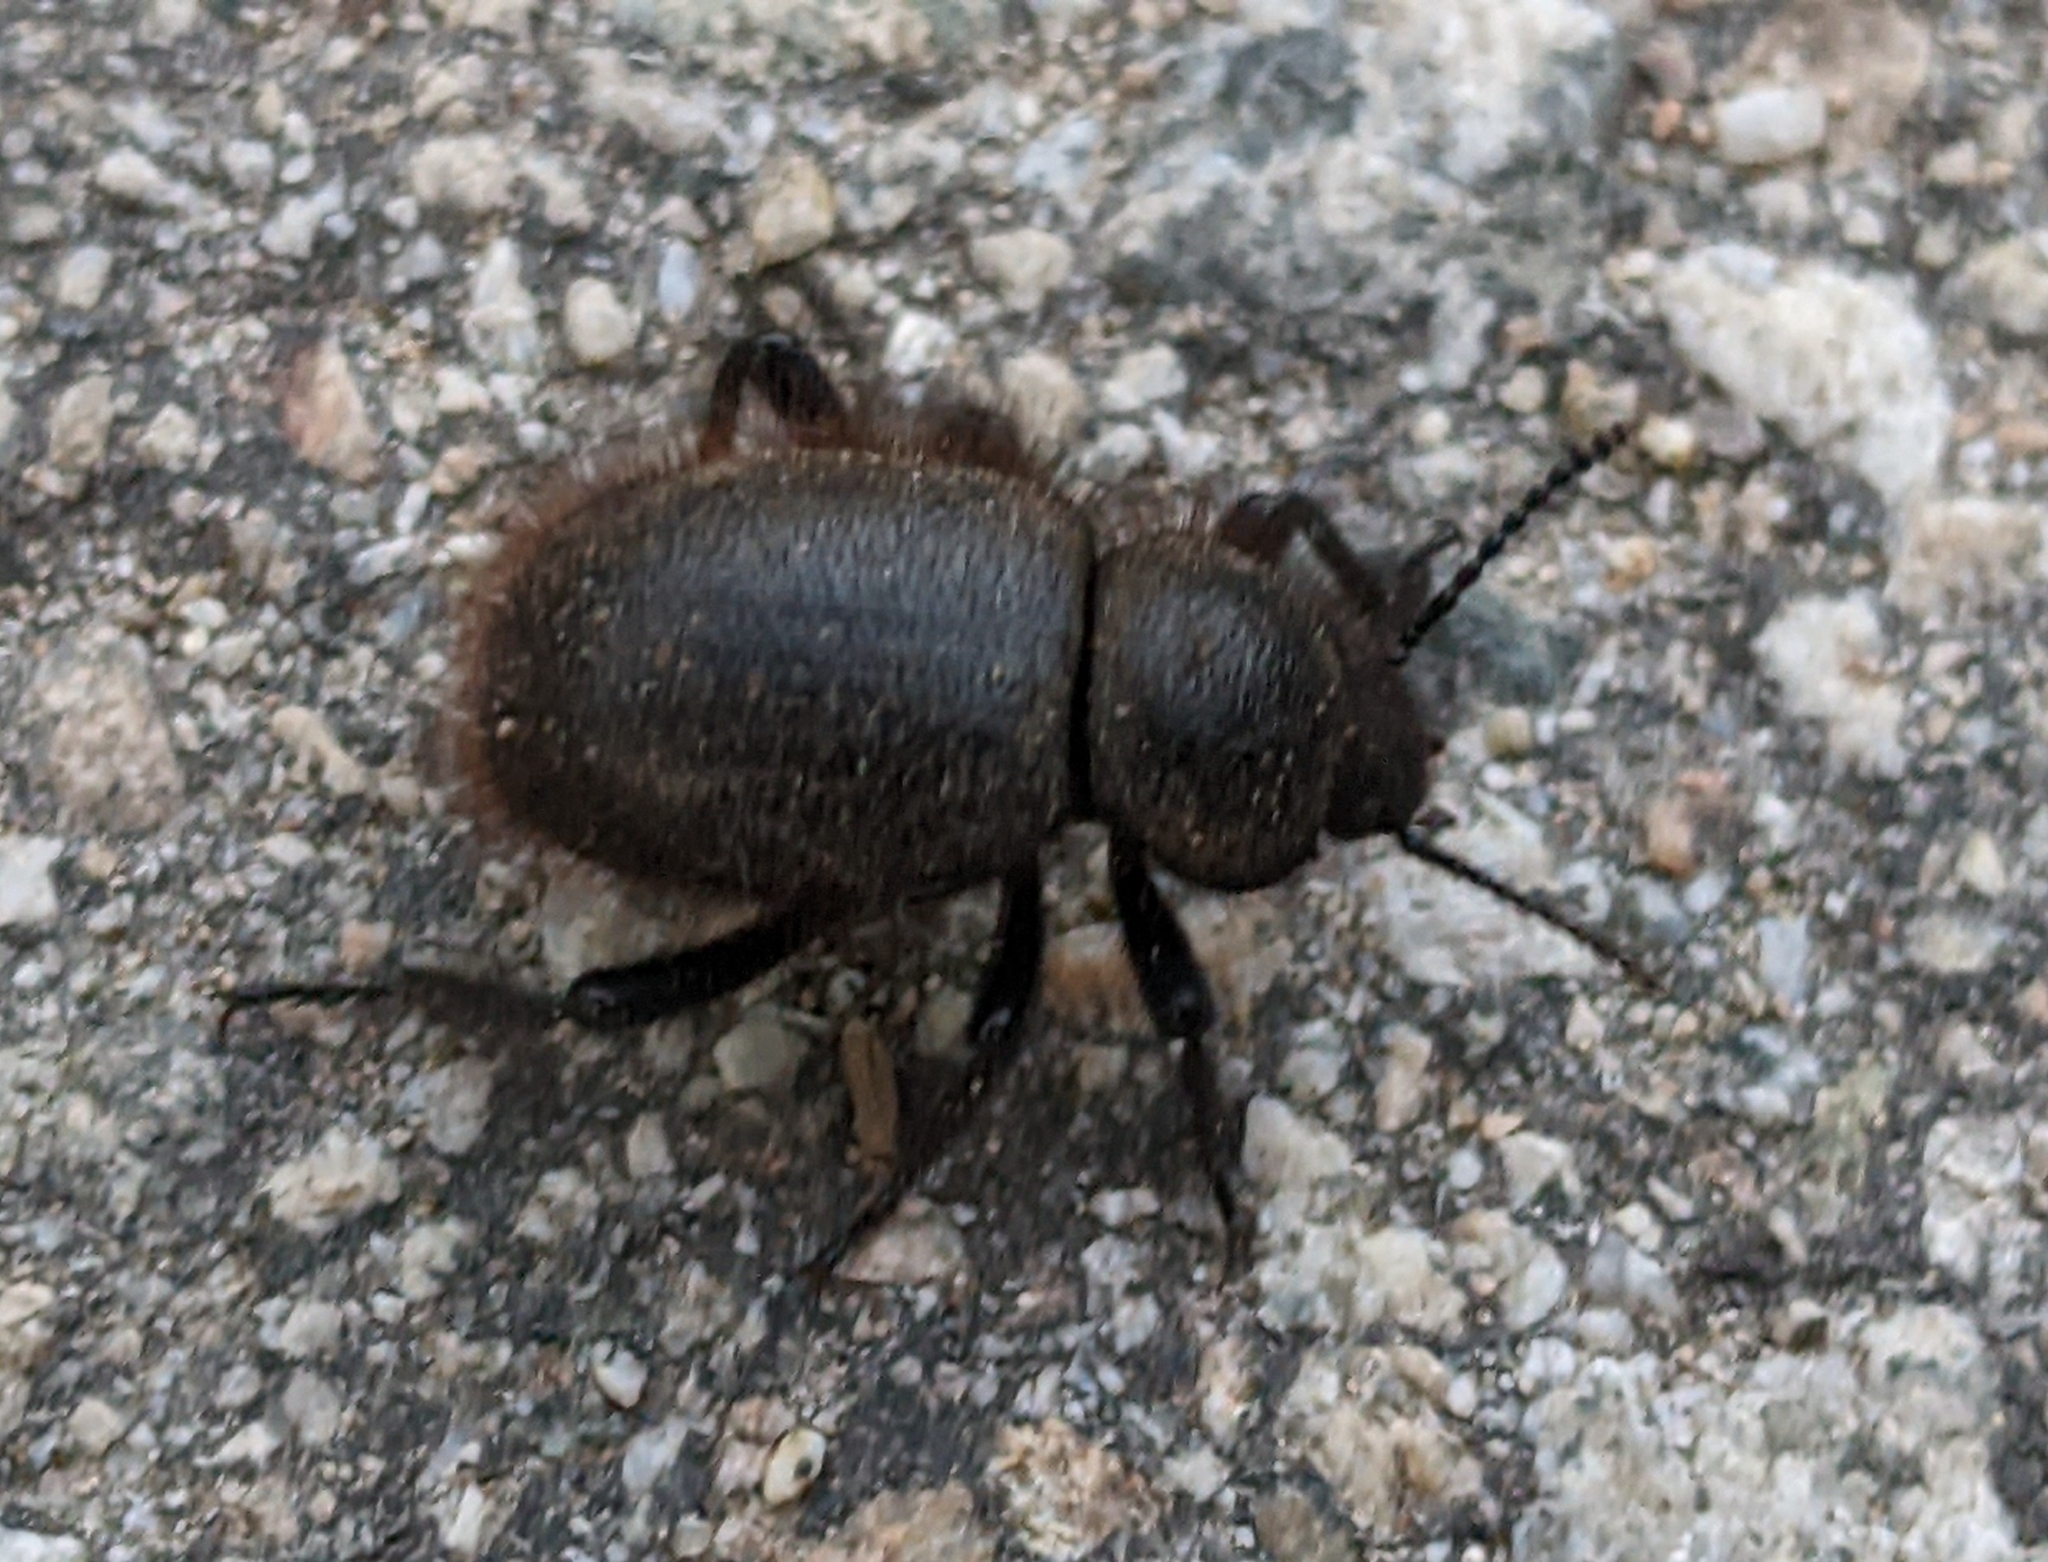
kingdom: Animalia
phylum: Arthropoda
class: Insecta
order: Coleoptera
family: Tenebrionidae
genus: Eleodes
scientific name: Eleodes osculans
